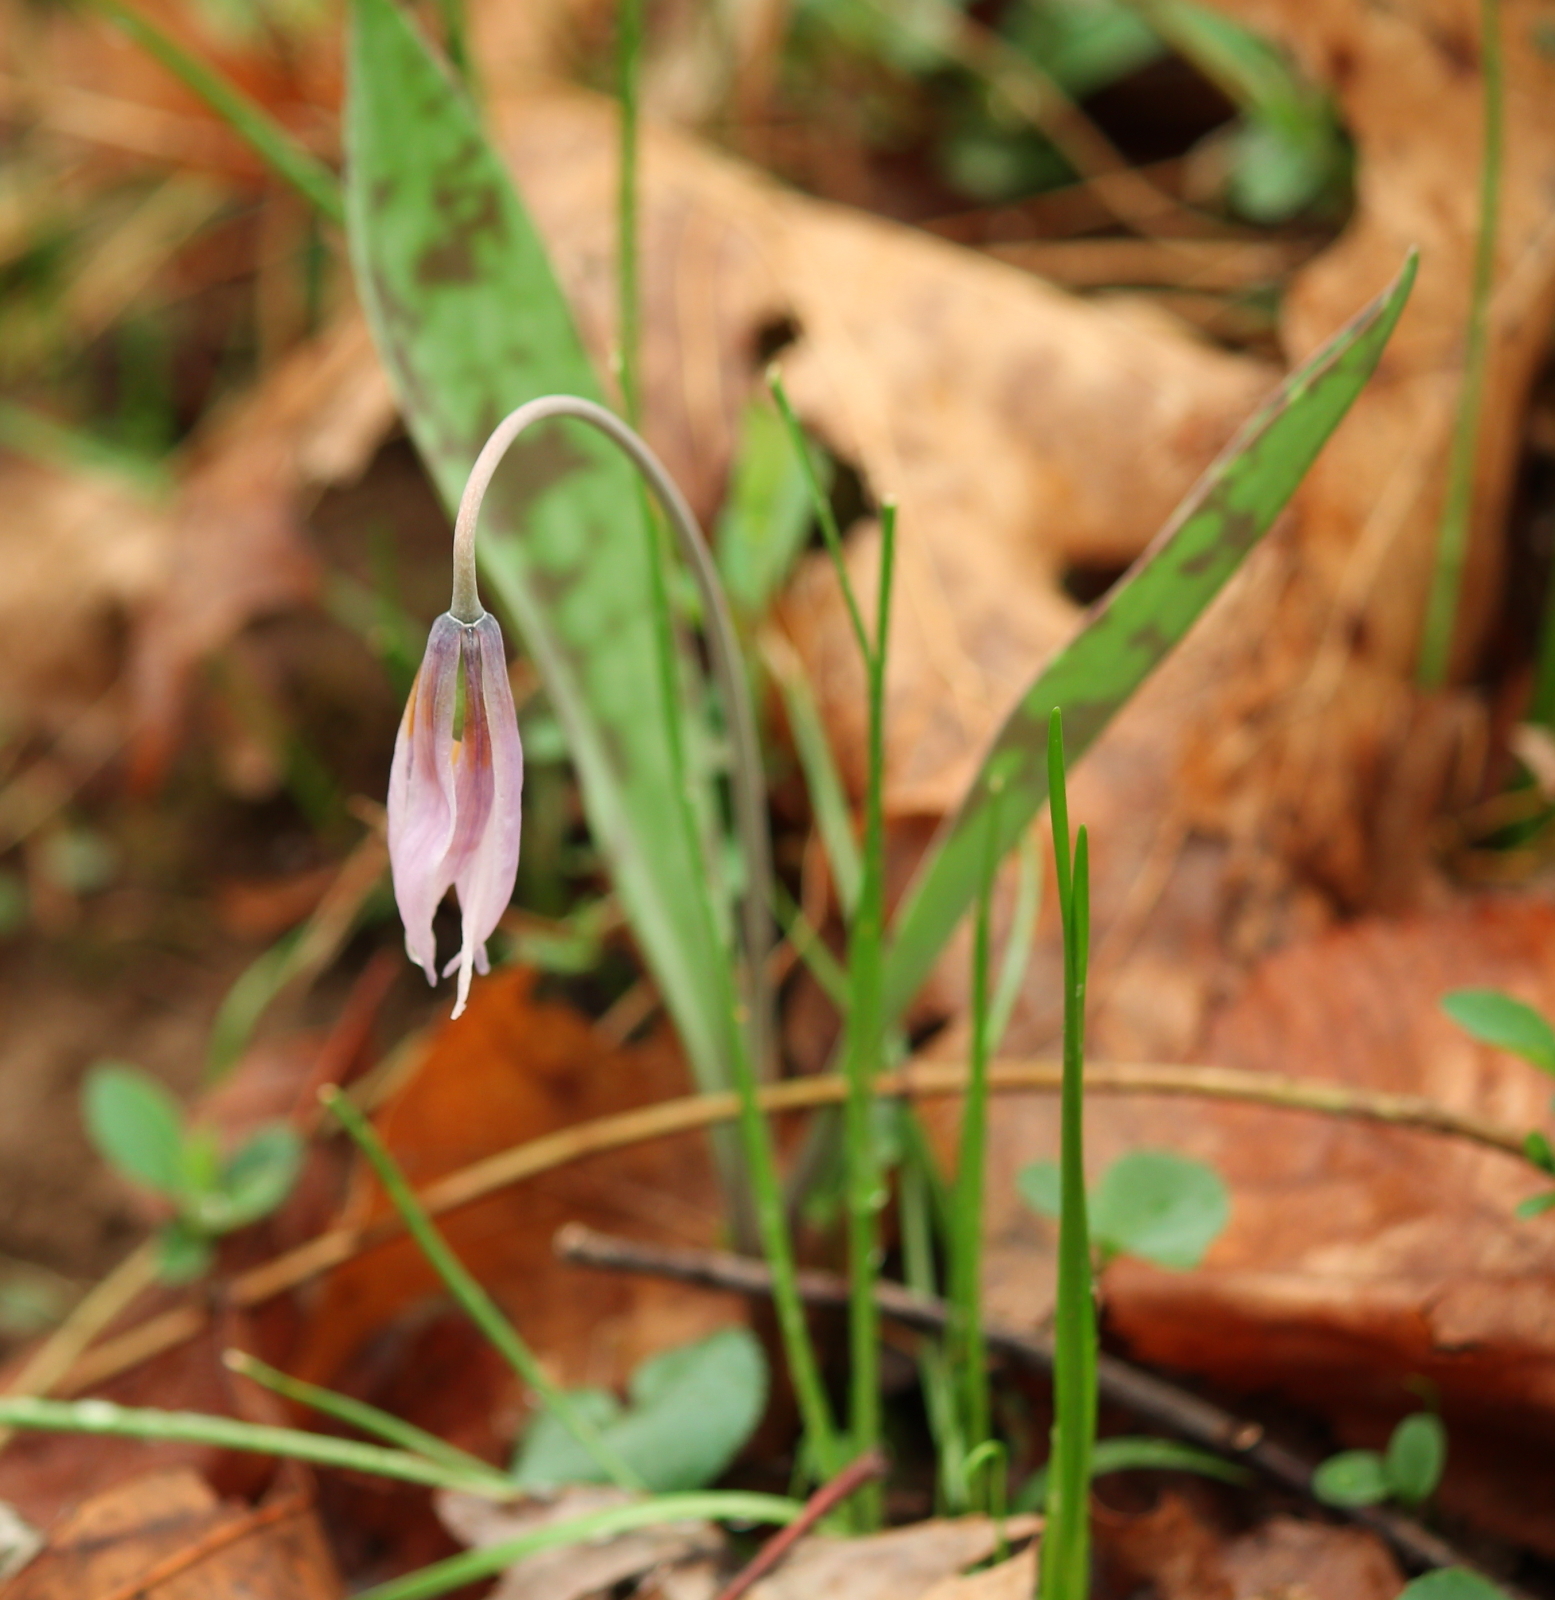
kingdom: Plantae
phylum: Tracheophyta
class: Liliopsida
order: Liliales
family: Liliaceae
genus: Erythronium
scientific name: Erythronium albidum
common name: White trout-lily
